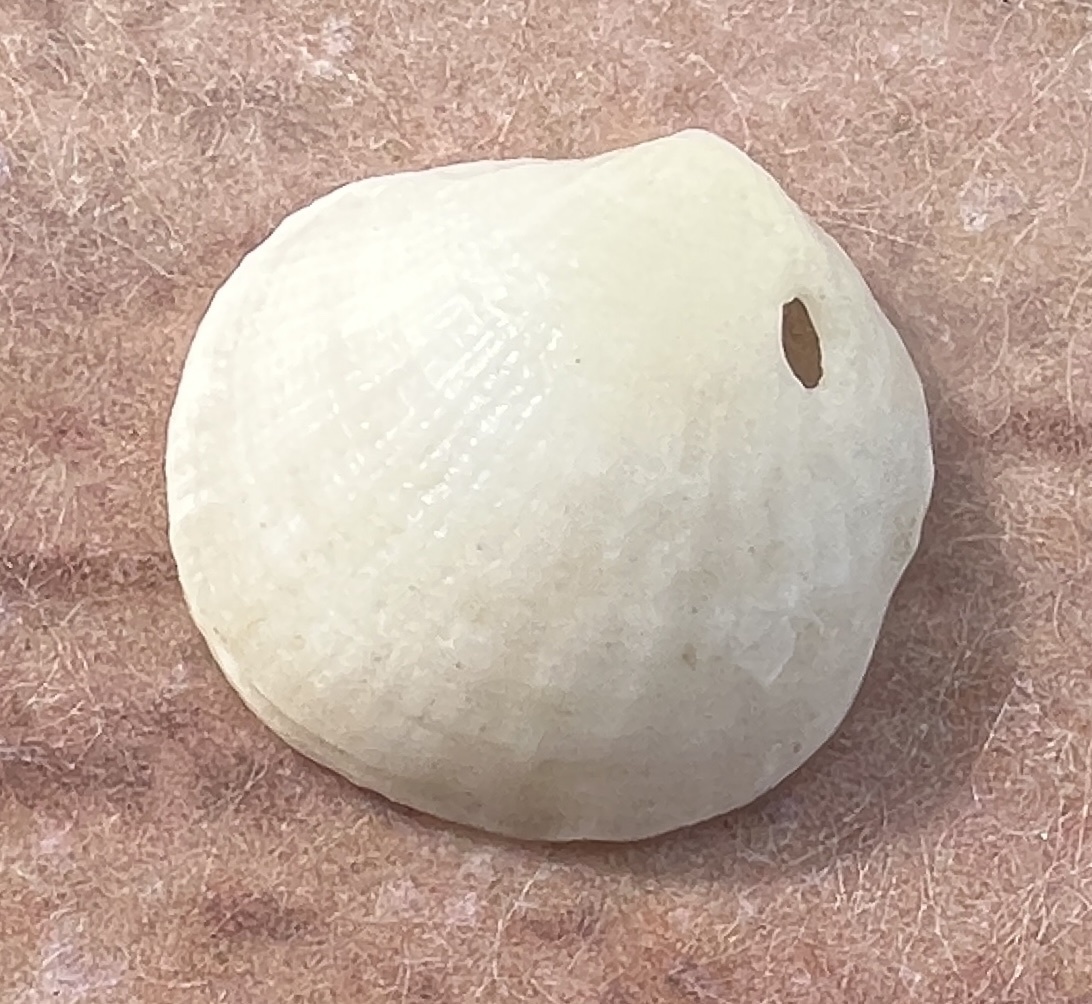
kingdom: Animalia
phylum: Mollusca
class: Bivalvia
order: Lucinida
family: Lucinidae
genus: Clathrolucina
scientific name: Clathrolucina costata
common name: Costate lucine
